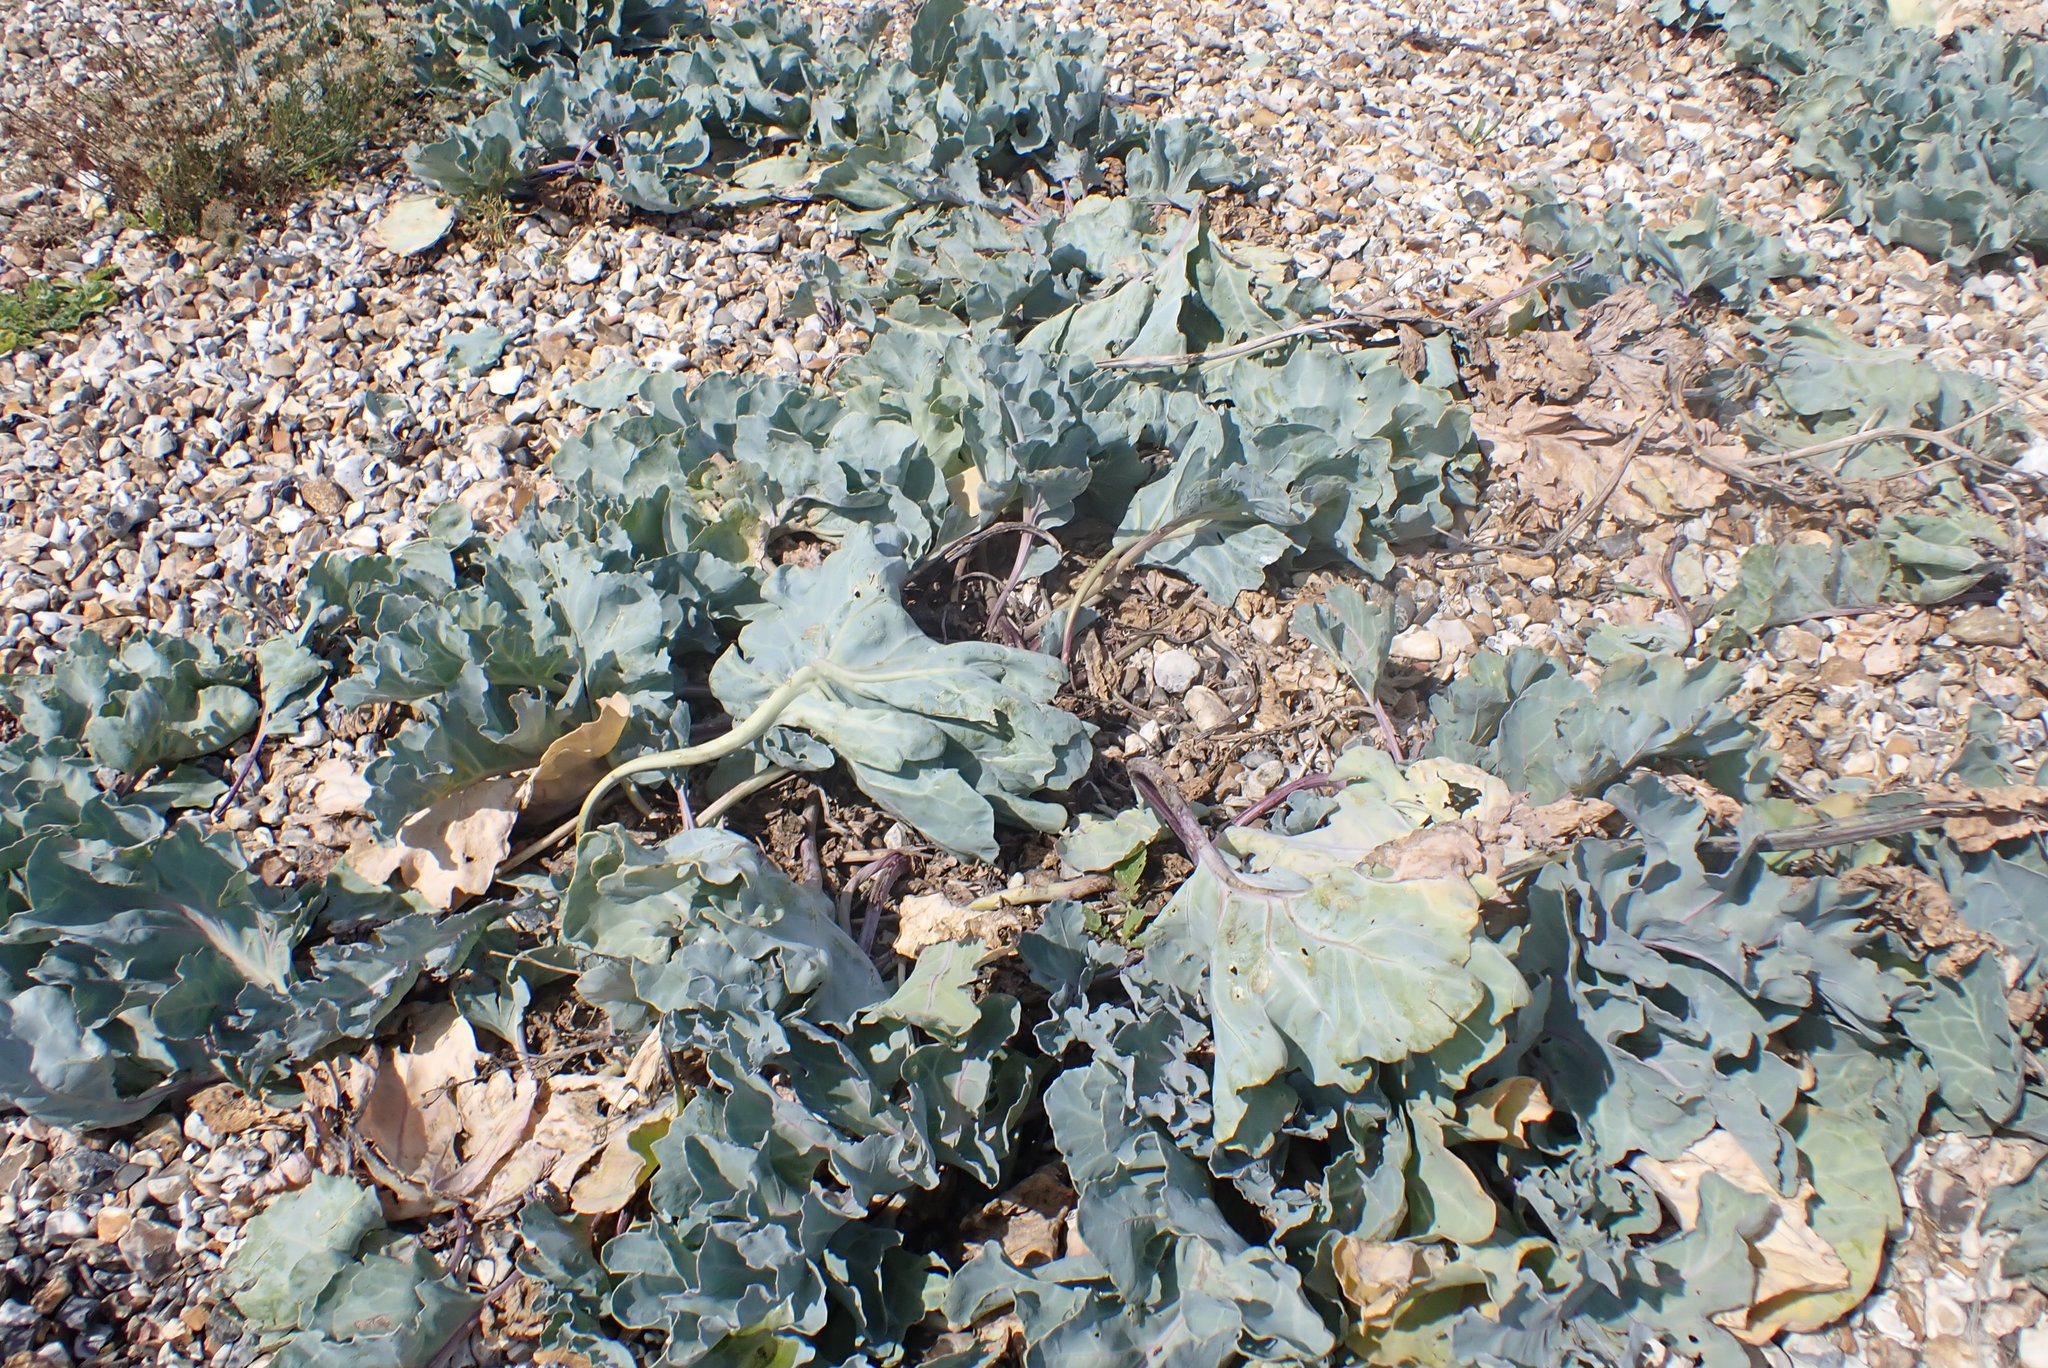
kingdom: Plantae
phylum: Tracheophyta
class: Magnoliopsida
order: Brassicales
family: Brassicaceae
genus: Crambe
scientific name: Crambe maritima
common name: Sea-kale
